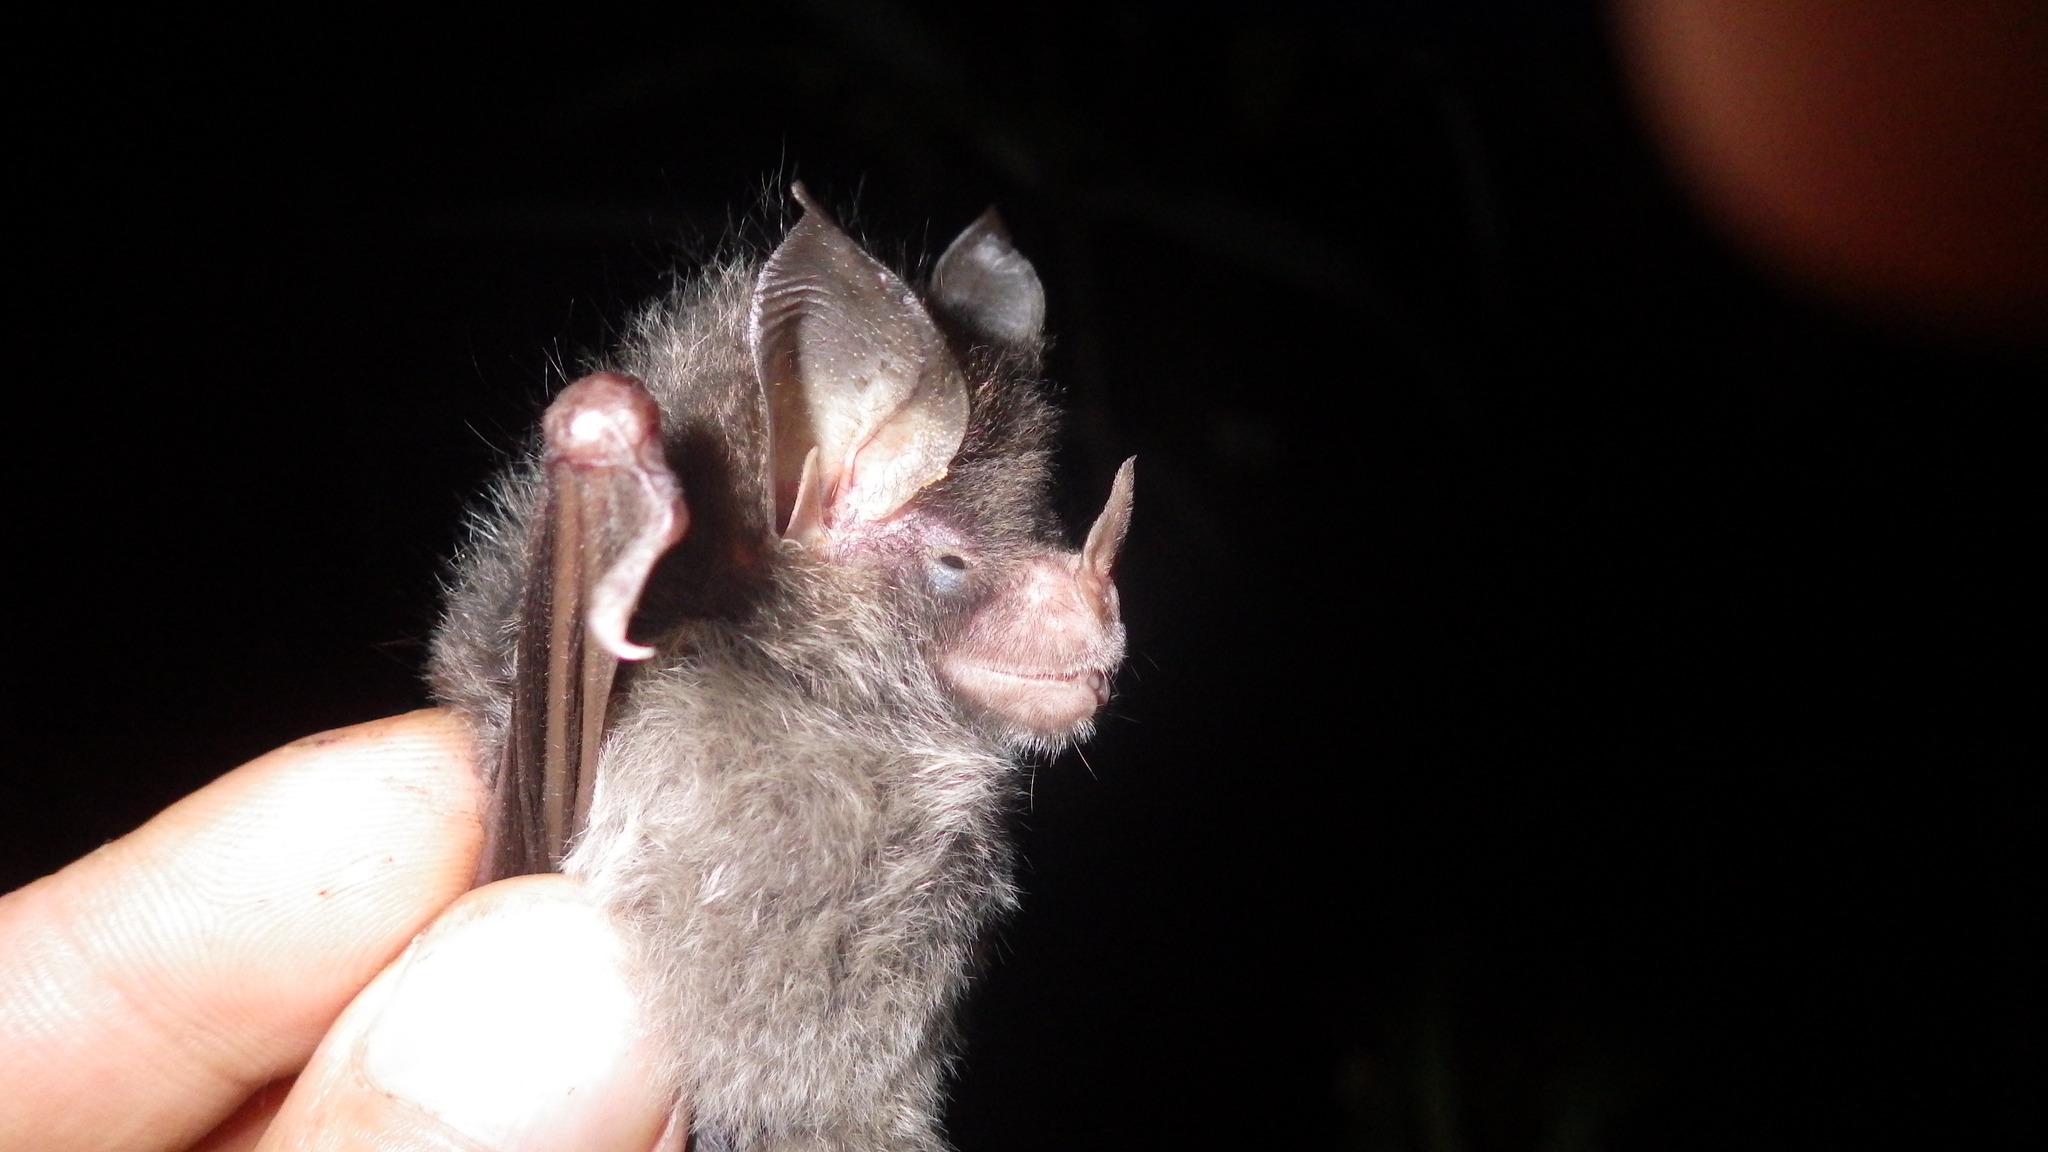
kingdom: Animalia
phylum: Chordata
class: Mammalia
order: Chiroptera
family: Phyllostomidae
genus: Glyphonycteris
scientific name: Glyphonycteris daviesi
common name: Graybeard bat
